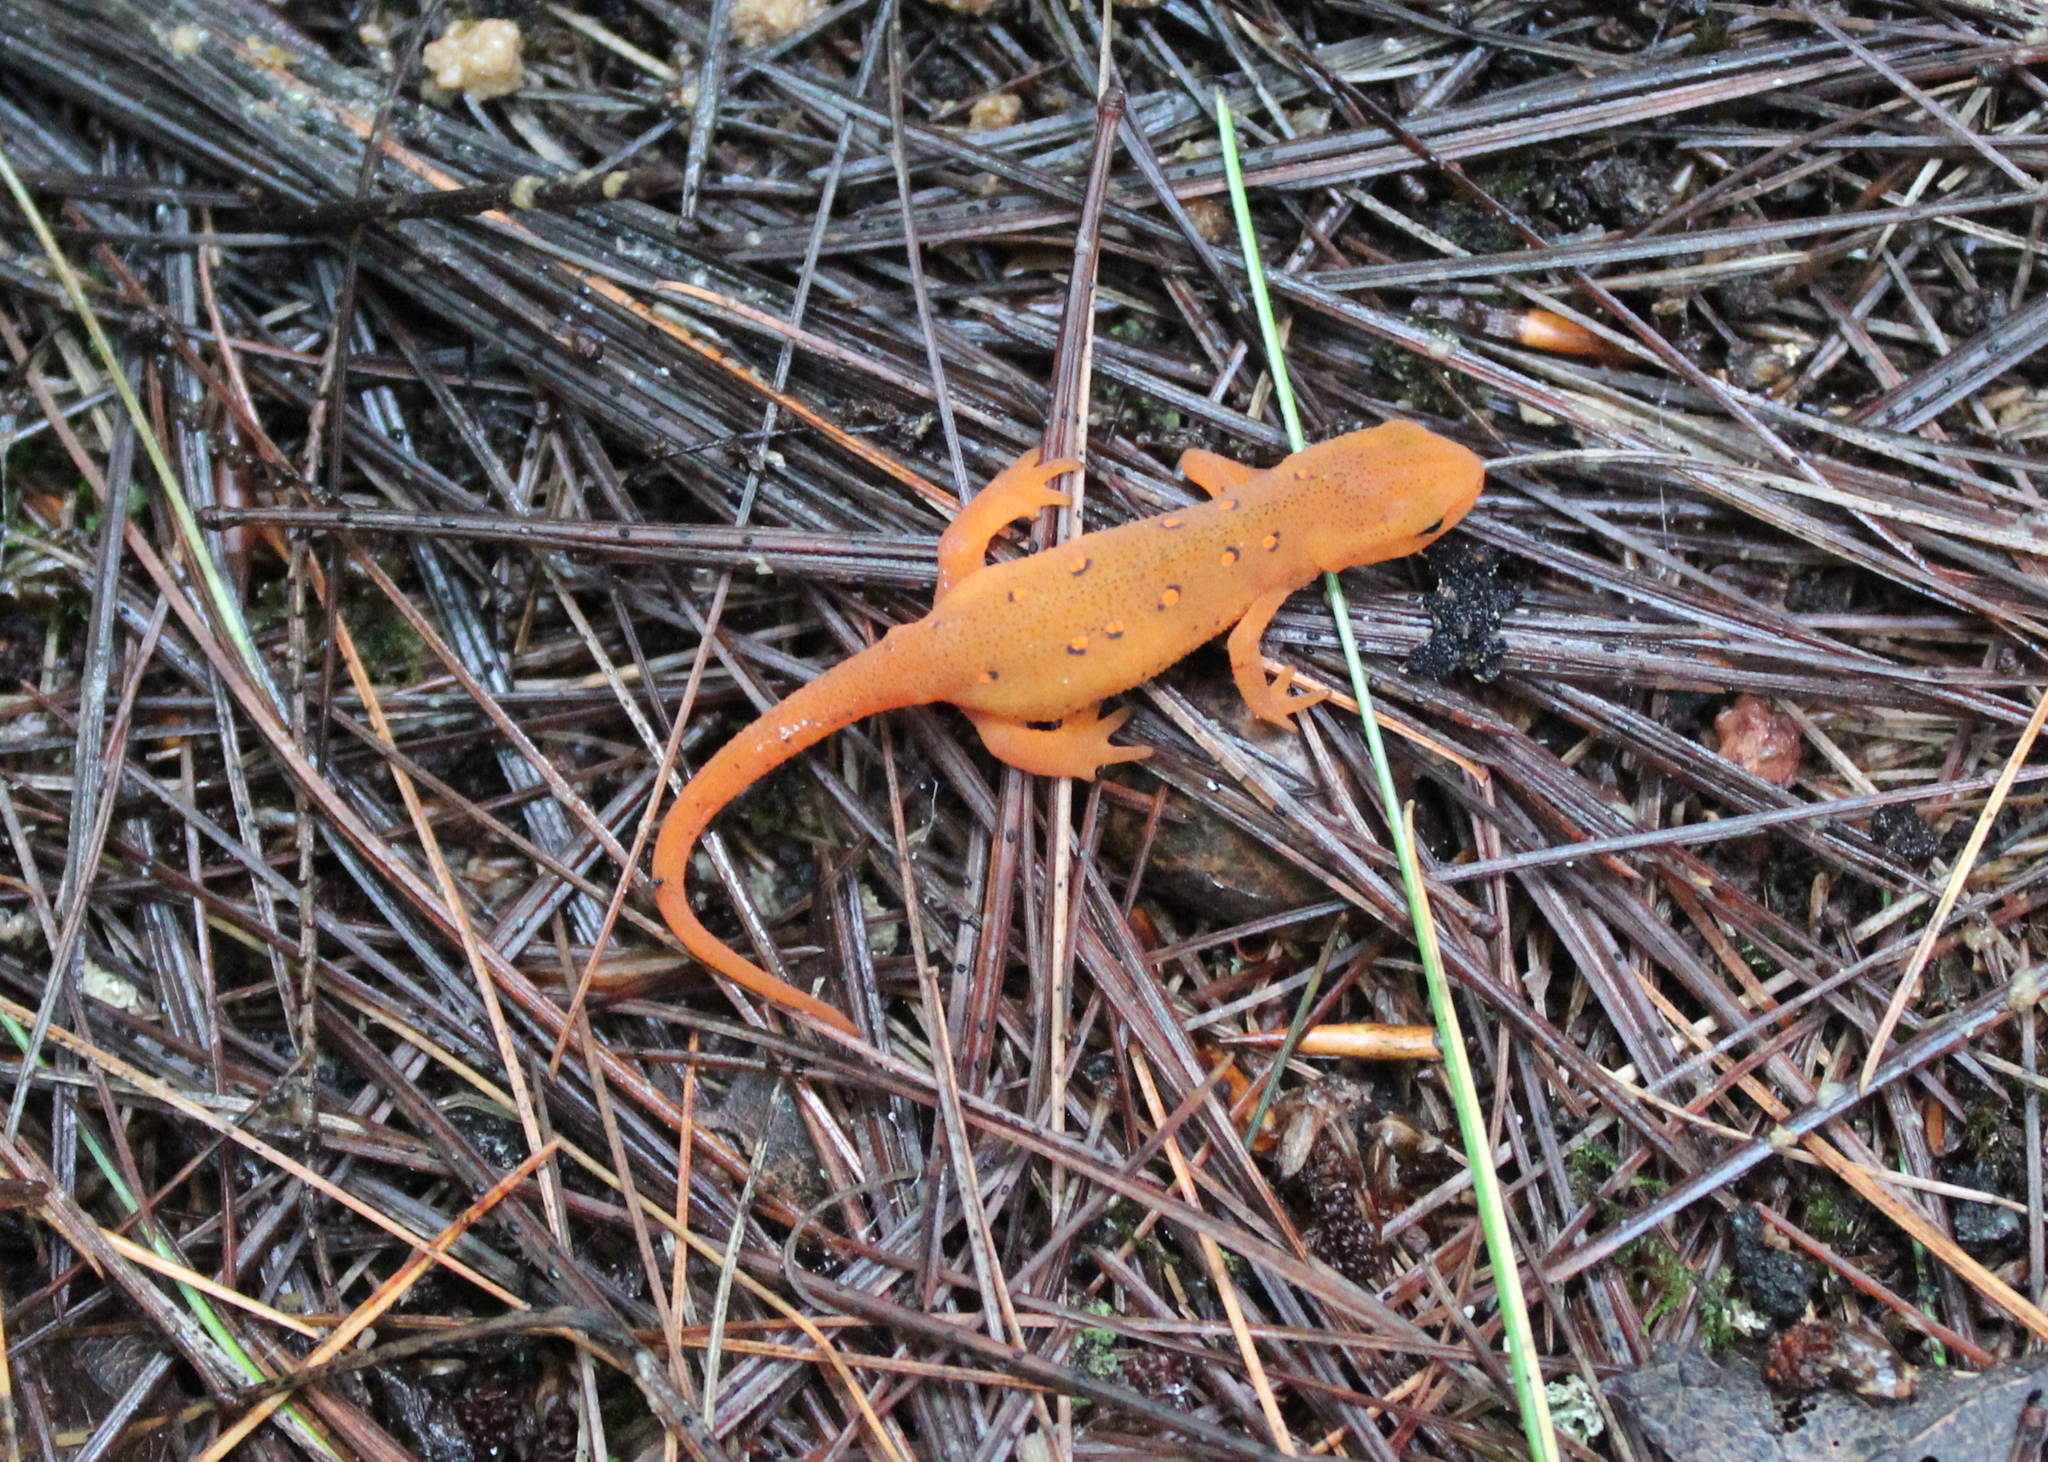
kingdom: Animalia
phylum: Chordata
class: Amphibia
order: Caudata
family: Salamandridae
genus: Notophthalmus
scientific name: Notophthalmus viridescens
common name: Eastern newt
